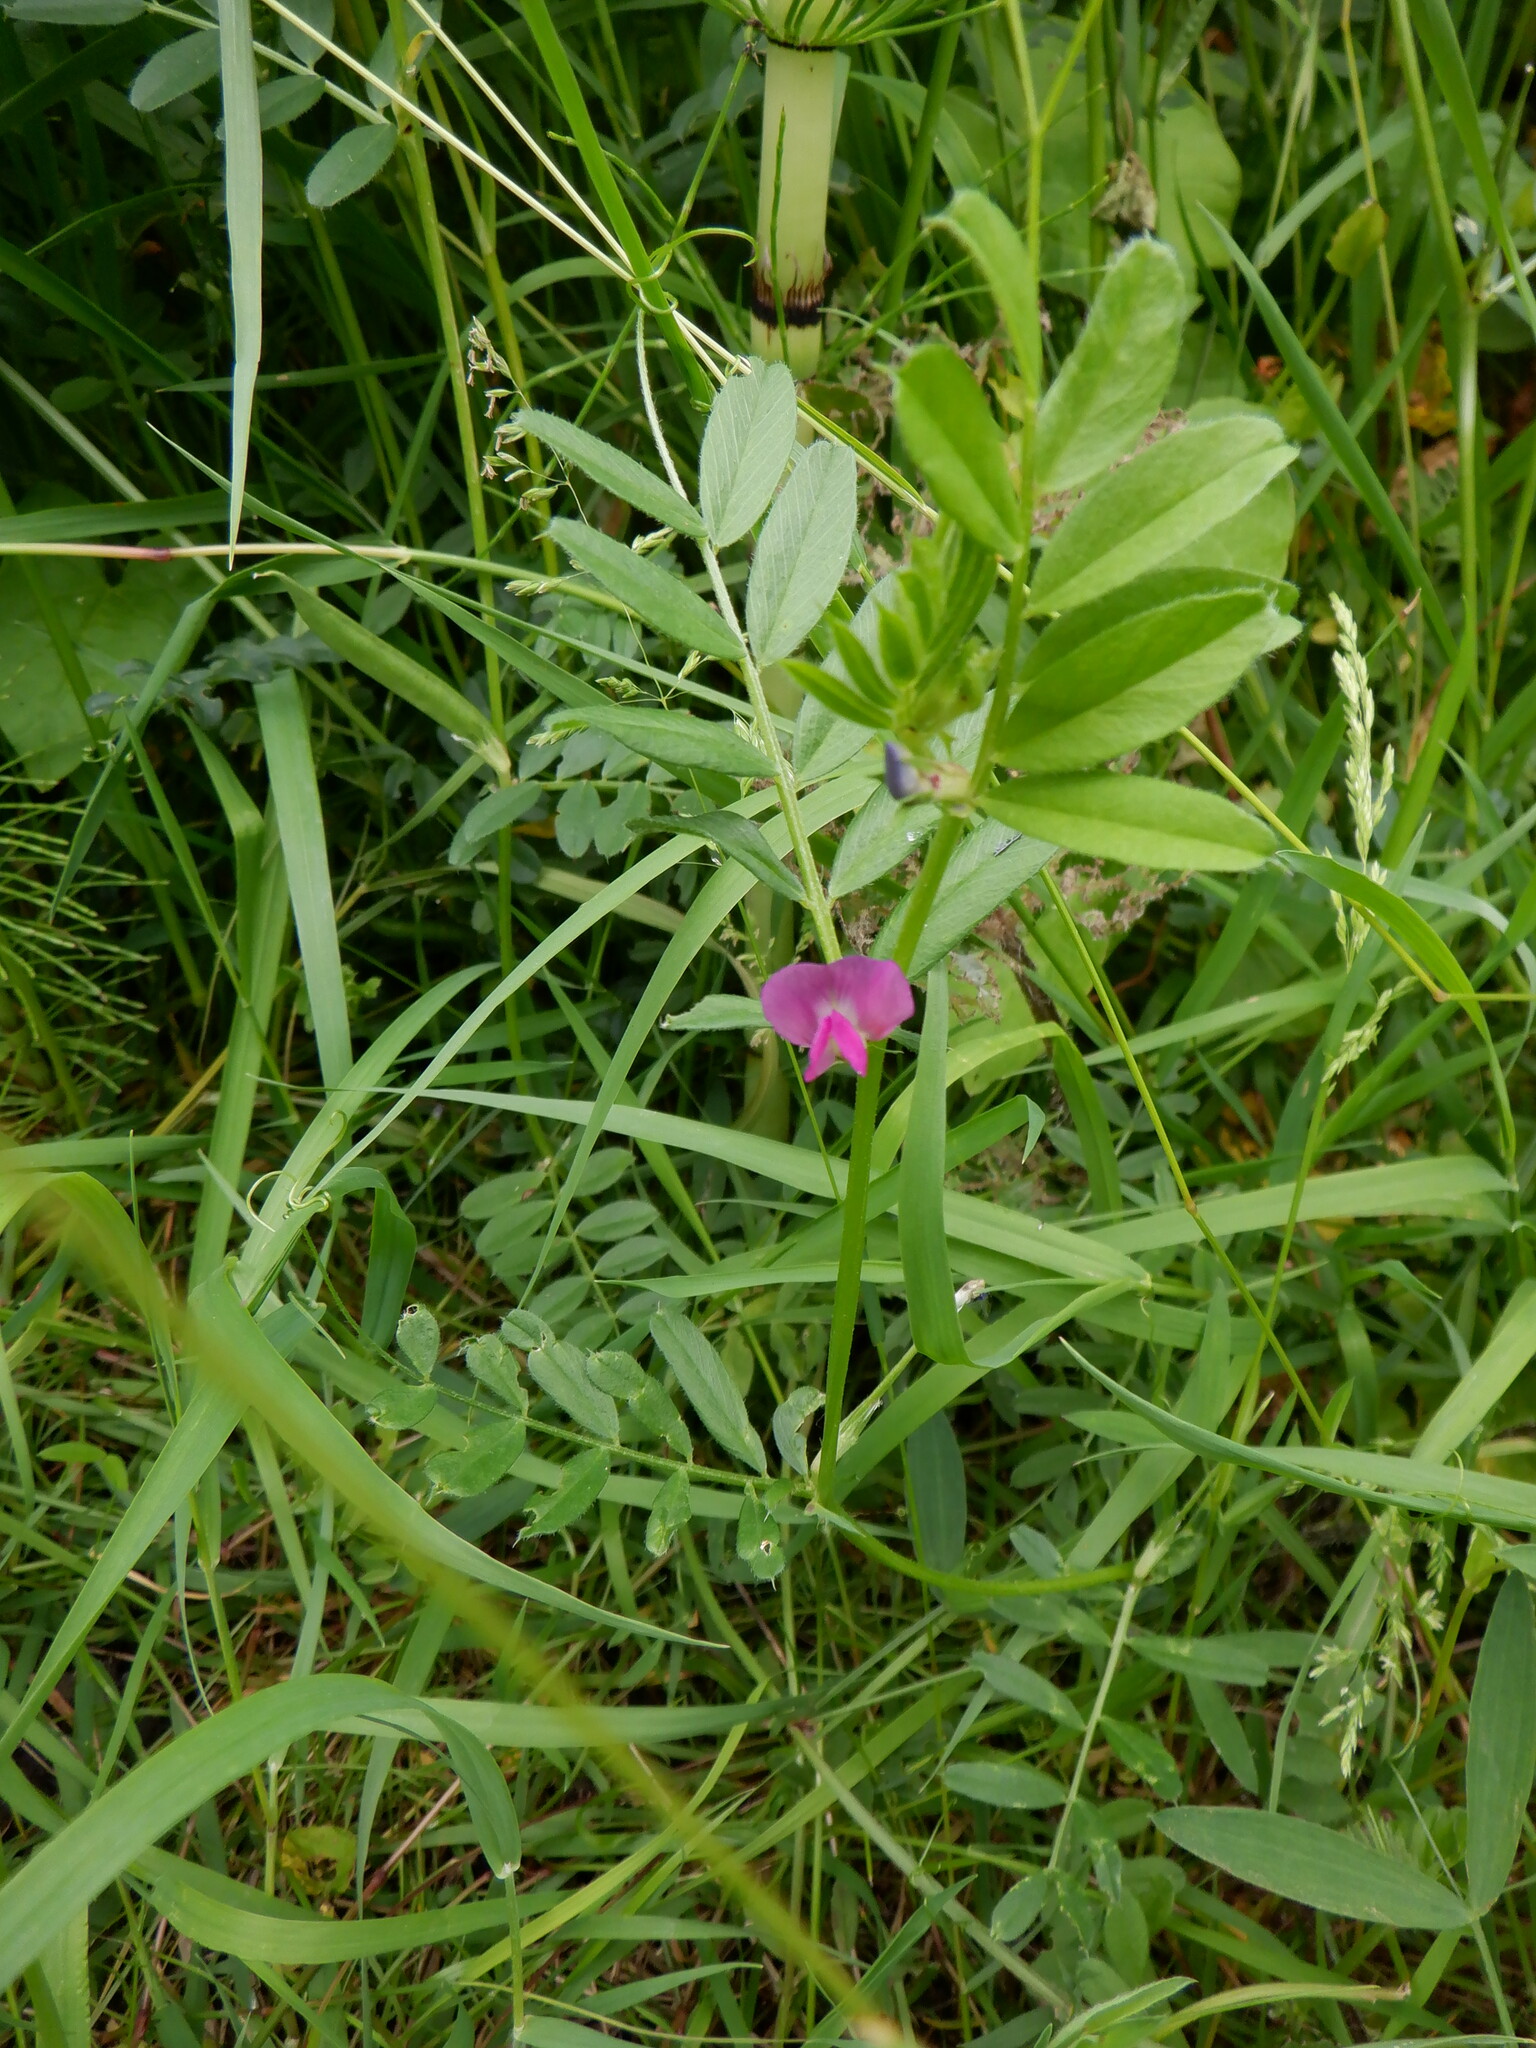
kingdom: Plantae
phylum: Tracheophyta
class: Magnoliopsida
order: Fabales
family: Fabaceae
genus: Vicia
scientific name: Vicia sativa
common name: Garden vetch
